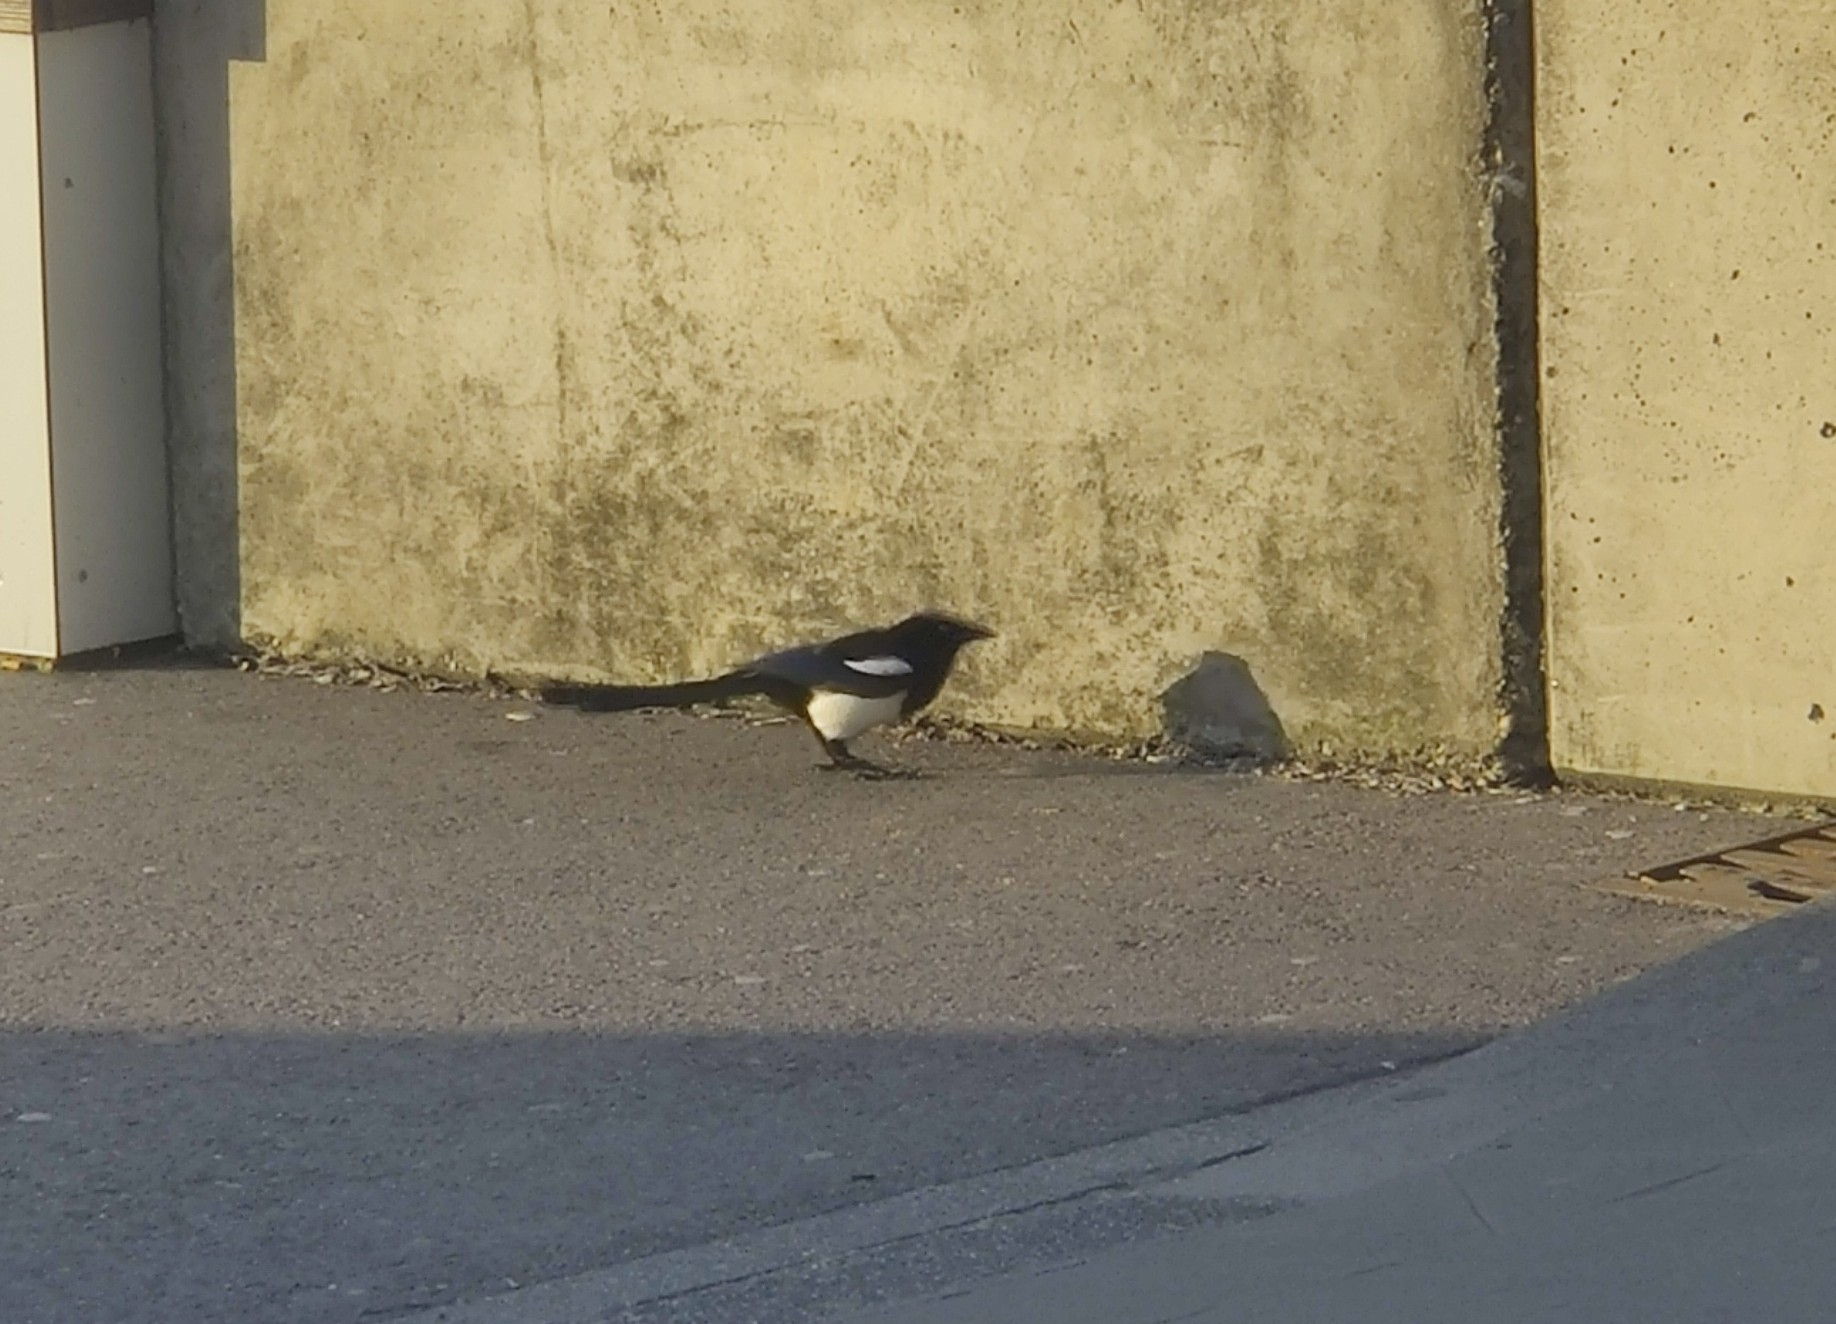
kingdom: Animalia
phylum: Chordata
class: Aves
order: Passeriformes
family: Corvidae
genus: Pica
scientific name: Pica pica
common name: Eurasian magpie
